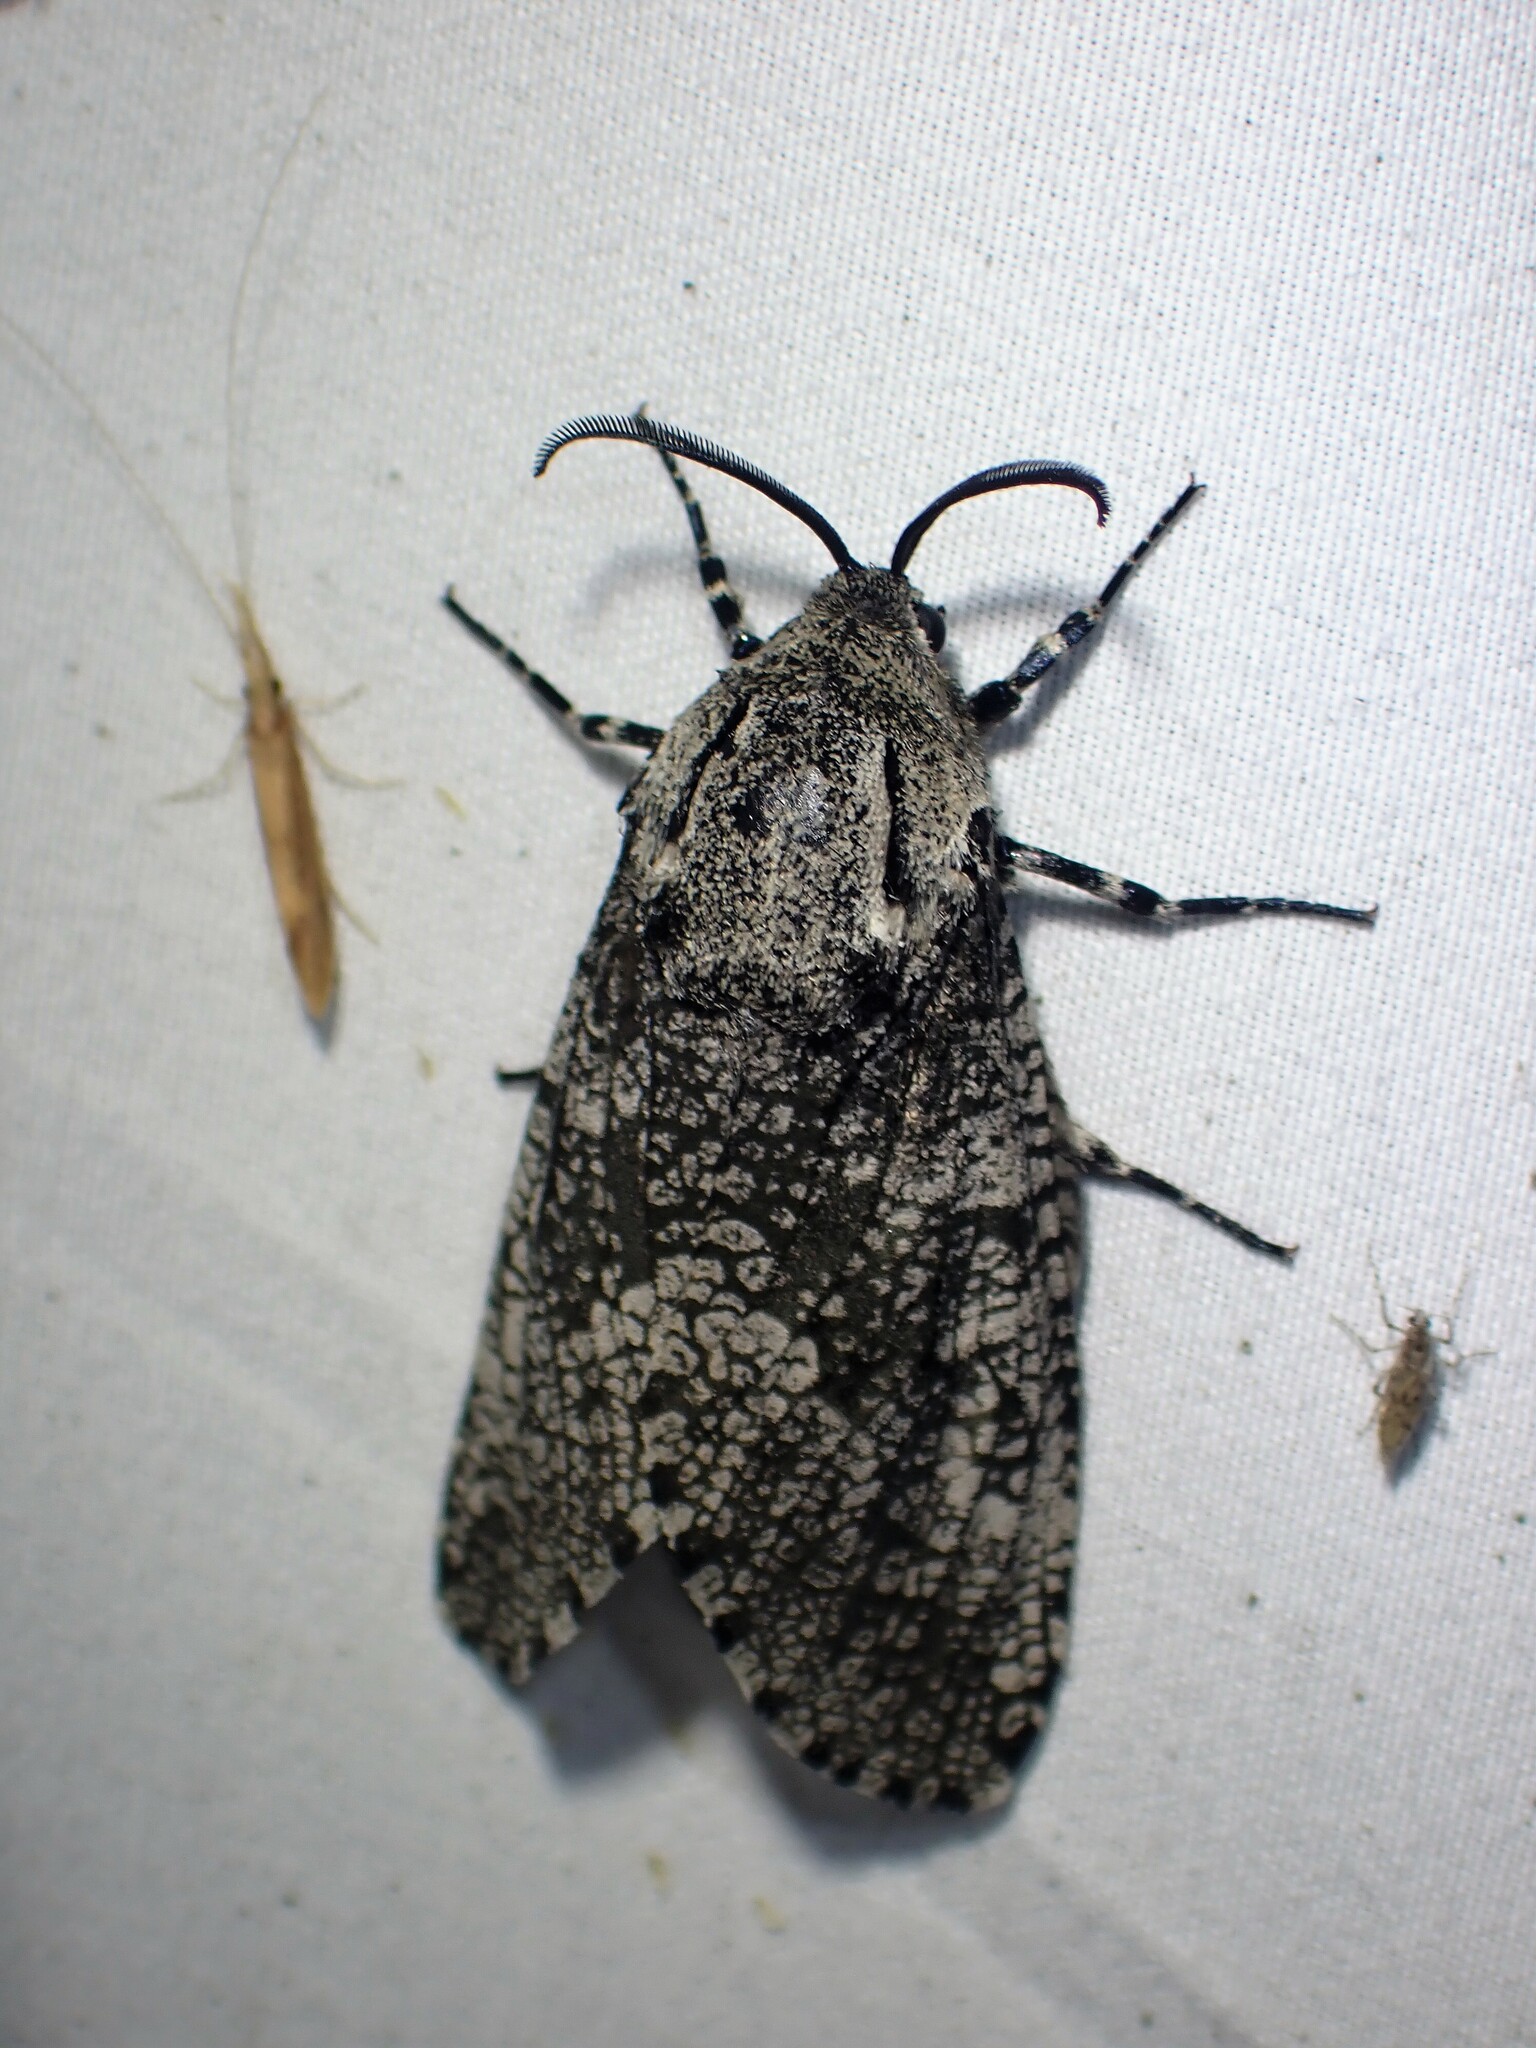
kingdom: Animalia
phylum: Arthropoda
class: Insecta
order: Lepidoptera
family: Cossidae
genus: Prionoxystus
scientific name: Prionoxystus robiniae
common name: Carpenterworm
